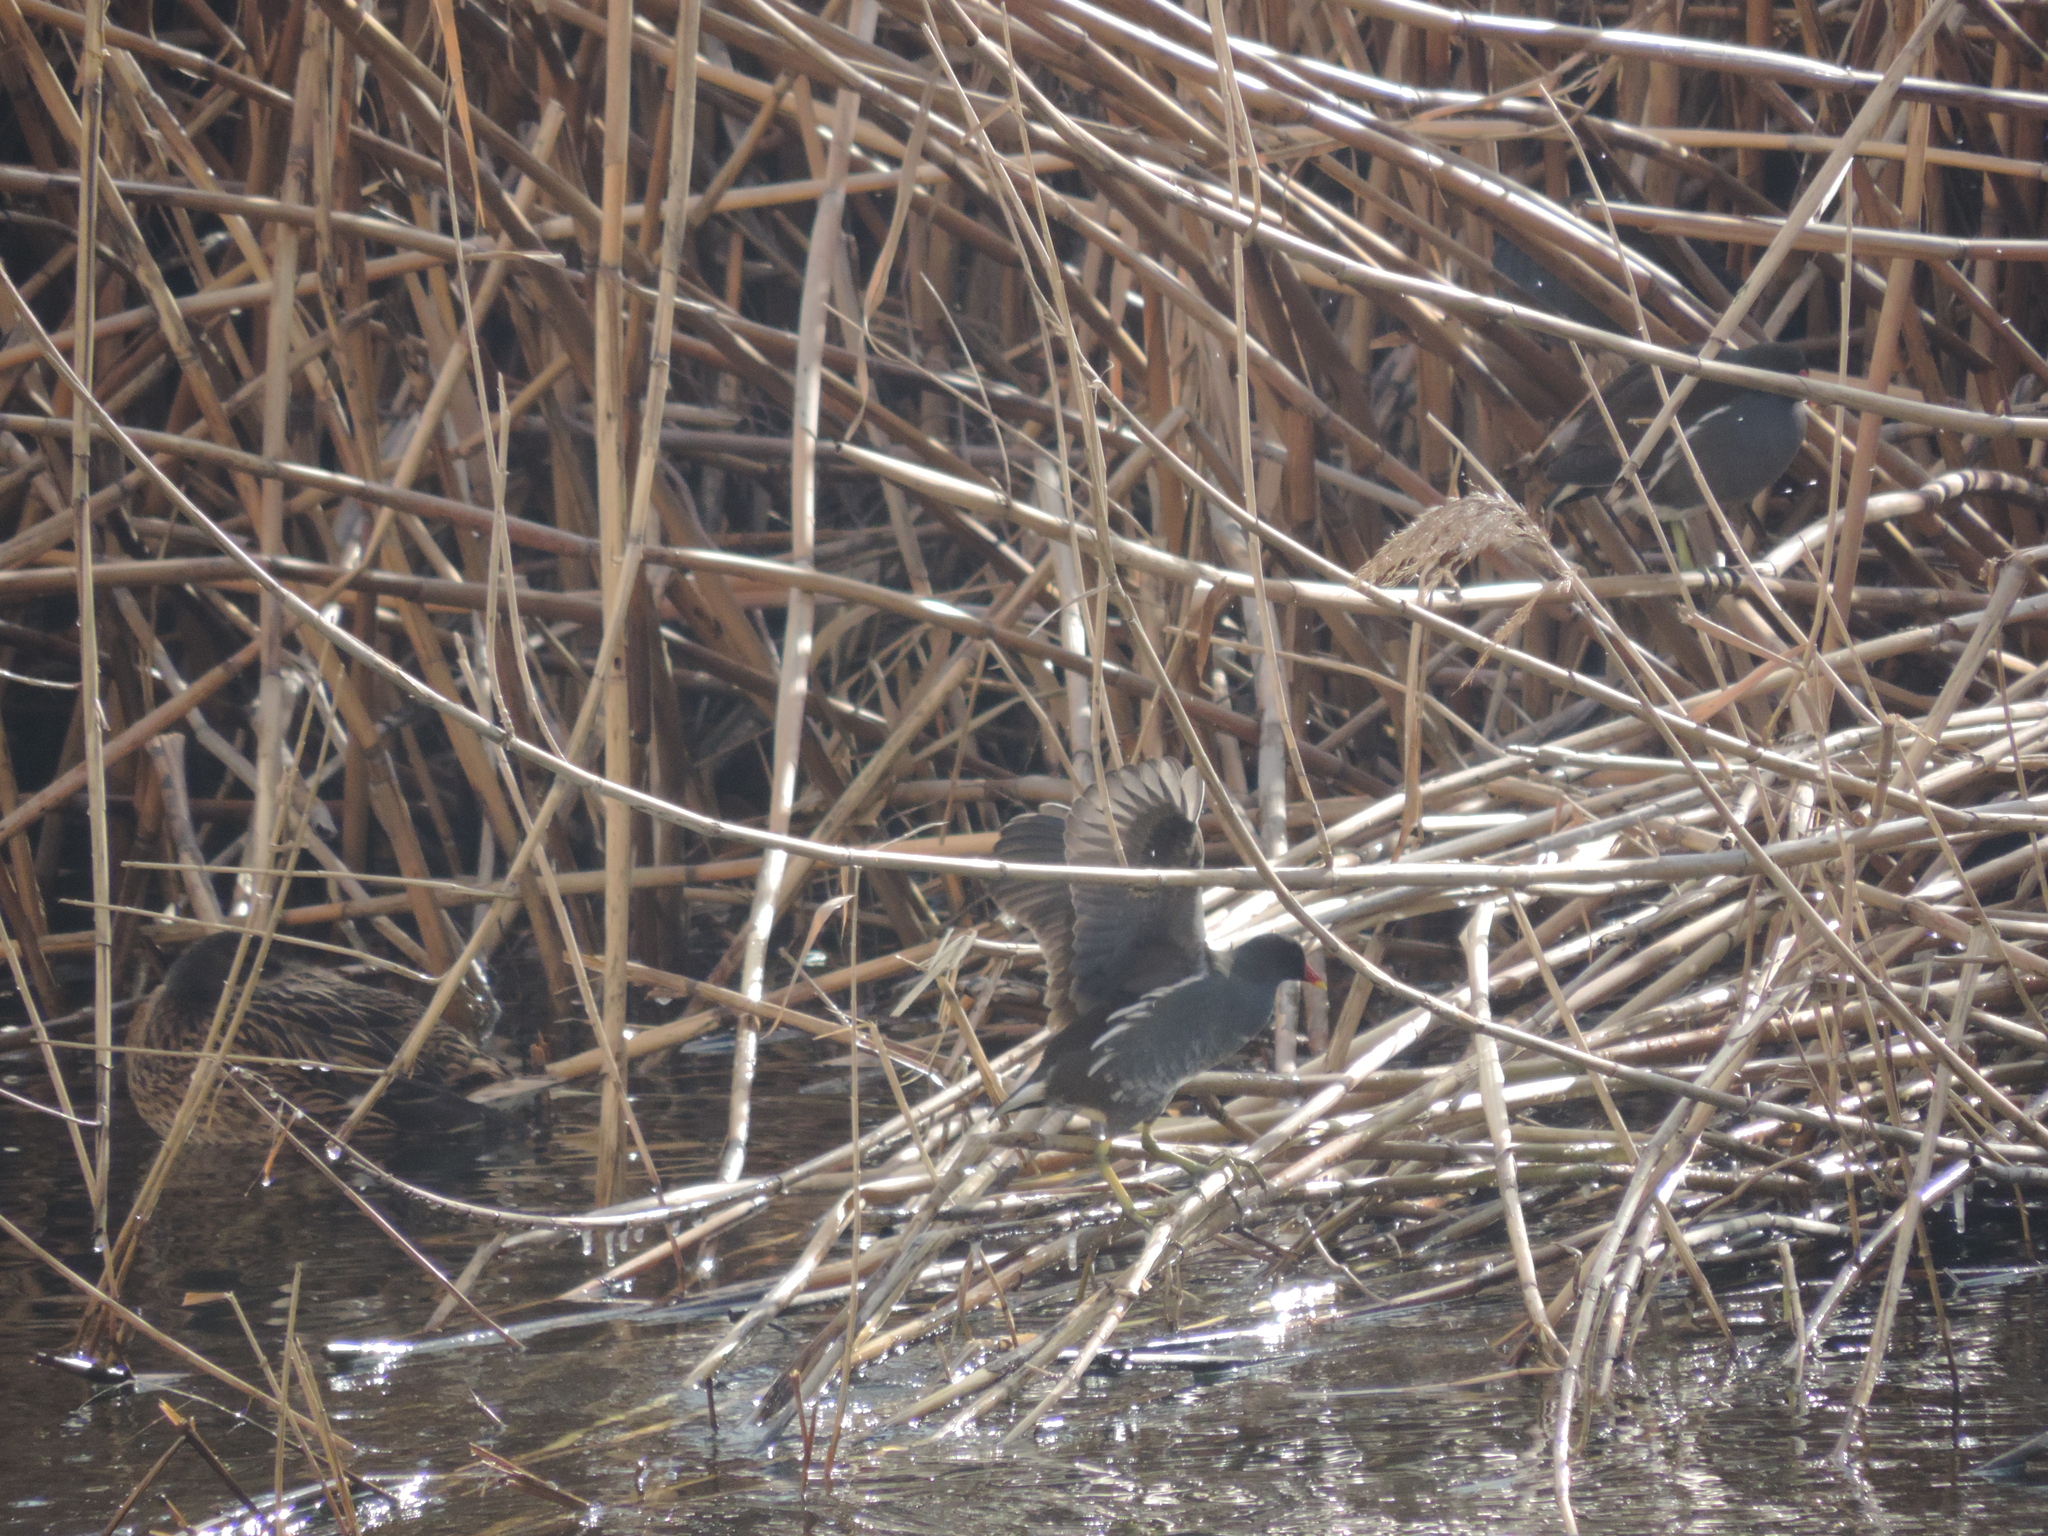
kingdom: Animalia
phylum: Chordata
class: Aves
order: Gruiformes
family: Rallidae
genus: Gallinula
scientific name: Gallinula chloropus
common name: Common moorhen
